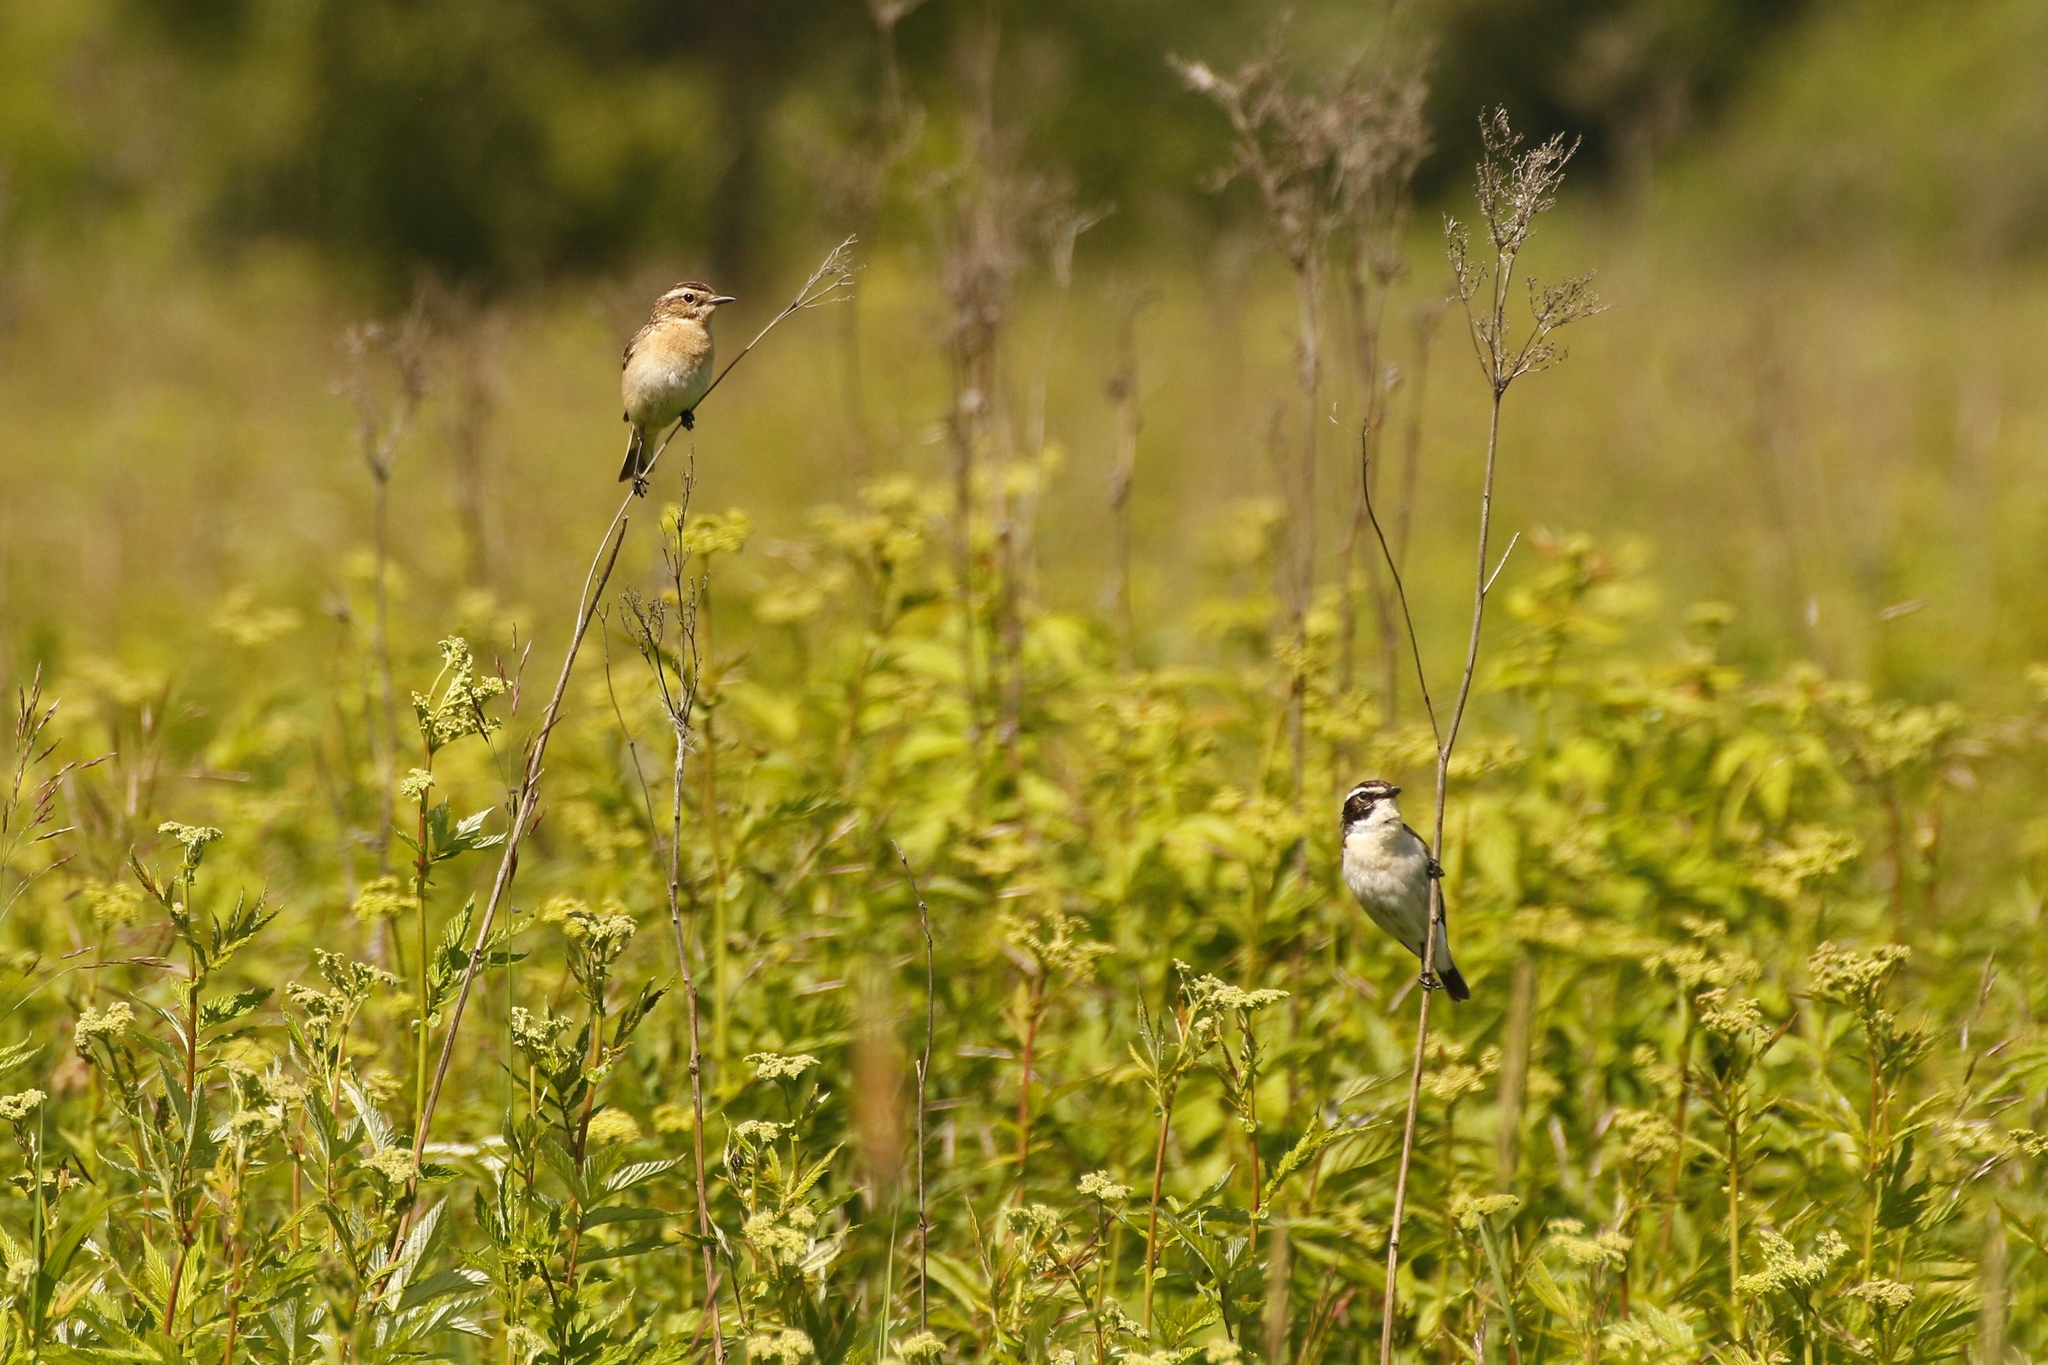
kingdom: Animalia
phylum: Chordata
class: Aves
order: Passeriformes
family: Muscicapidae
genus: Saxicola
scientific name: Saxicola rubetra
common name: Whinchat
